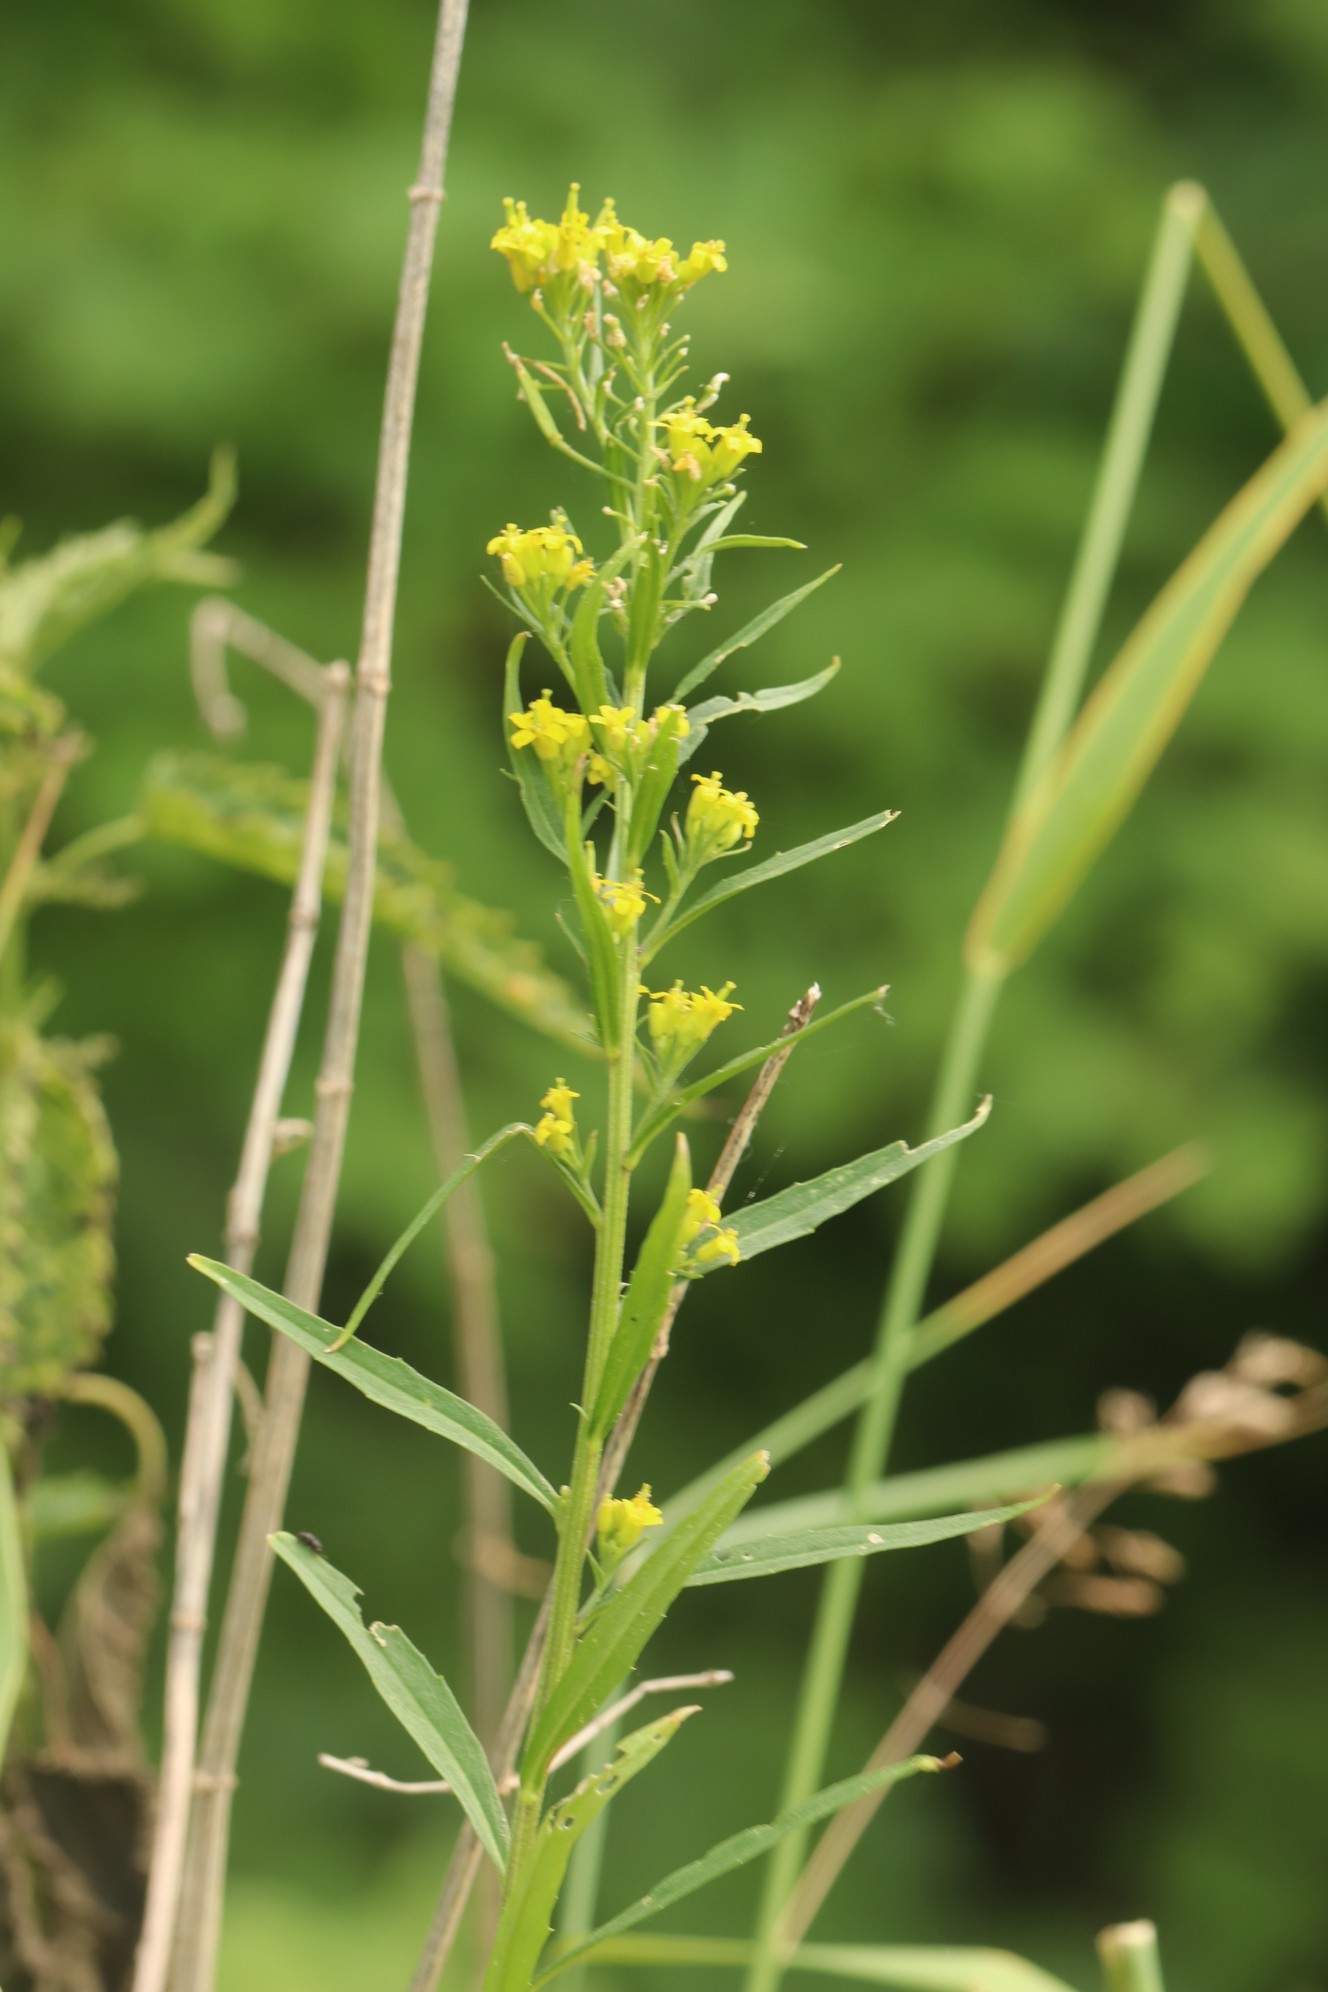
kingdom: Plantae
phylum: Tracheophyta
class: Magnoliopsida
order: Brassicales
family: Brassicaceae
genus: Erysimum
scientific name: Erysimum cheiranthoides
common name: Treacle mustard
